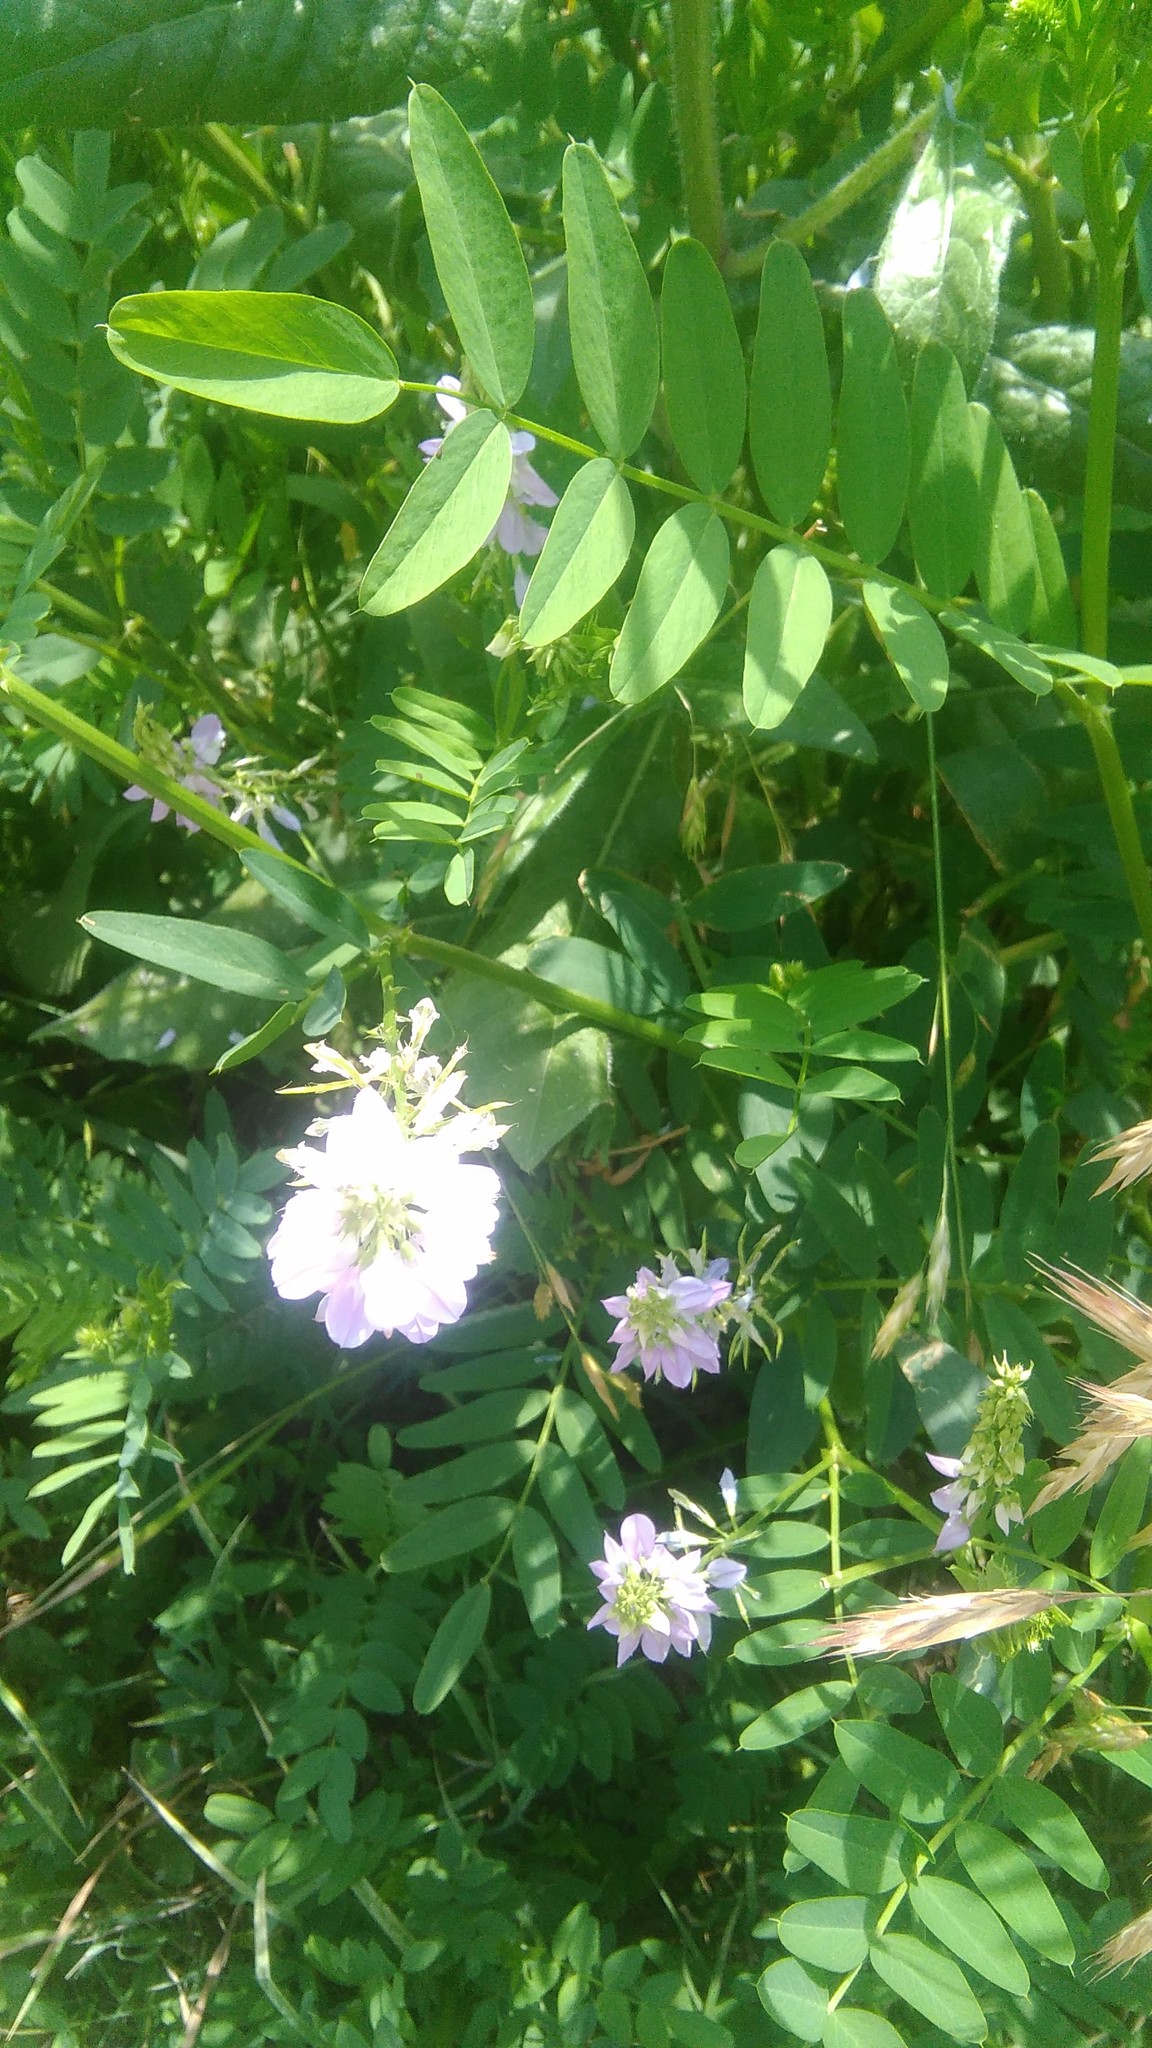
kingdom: Plantae
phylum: Tracheophyta
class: Magnoliopsida
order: Fabales
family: Fabaceae
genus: Galega
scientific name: Galega officinalis
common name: Goat's-rue
